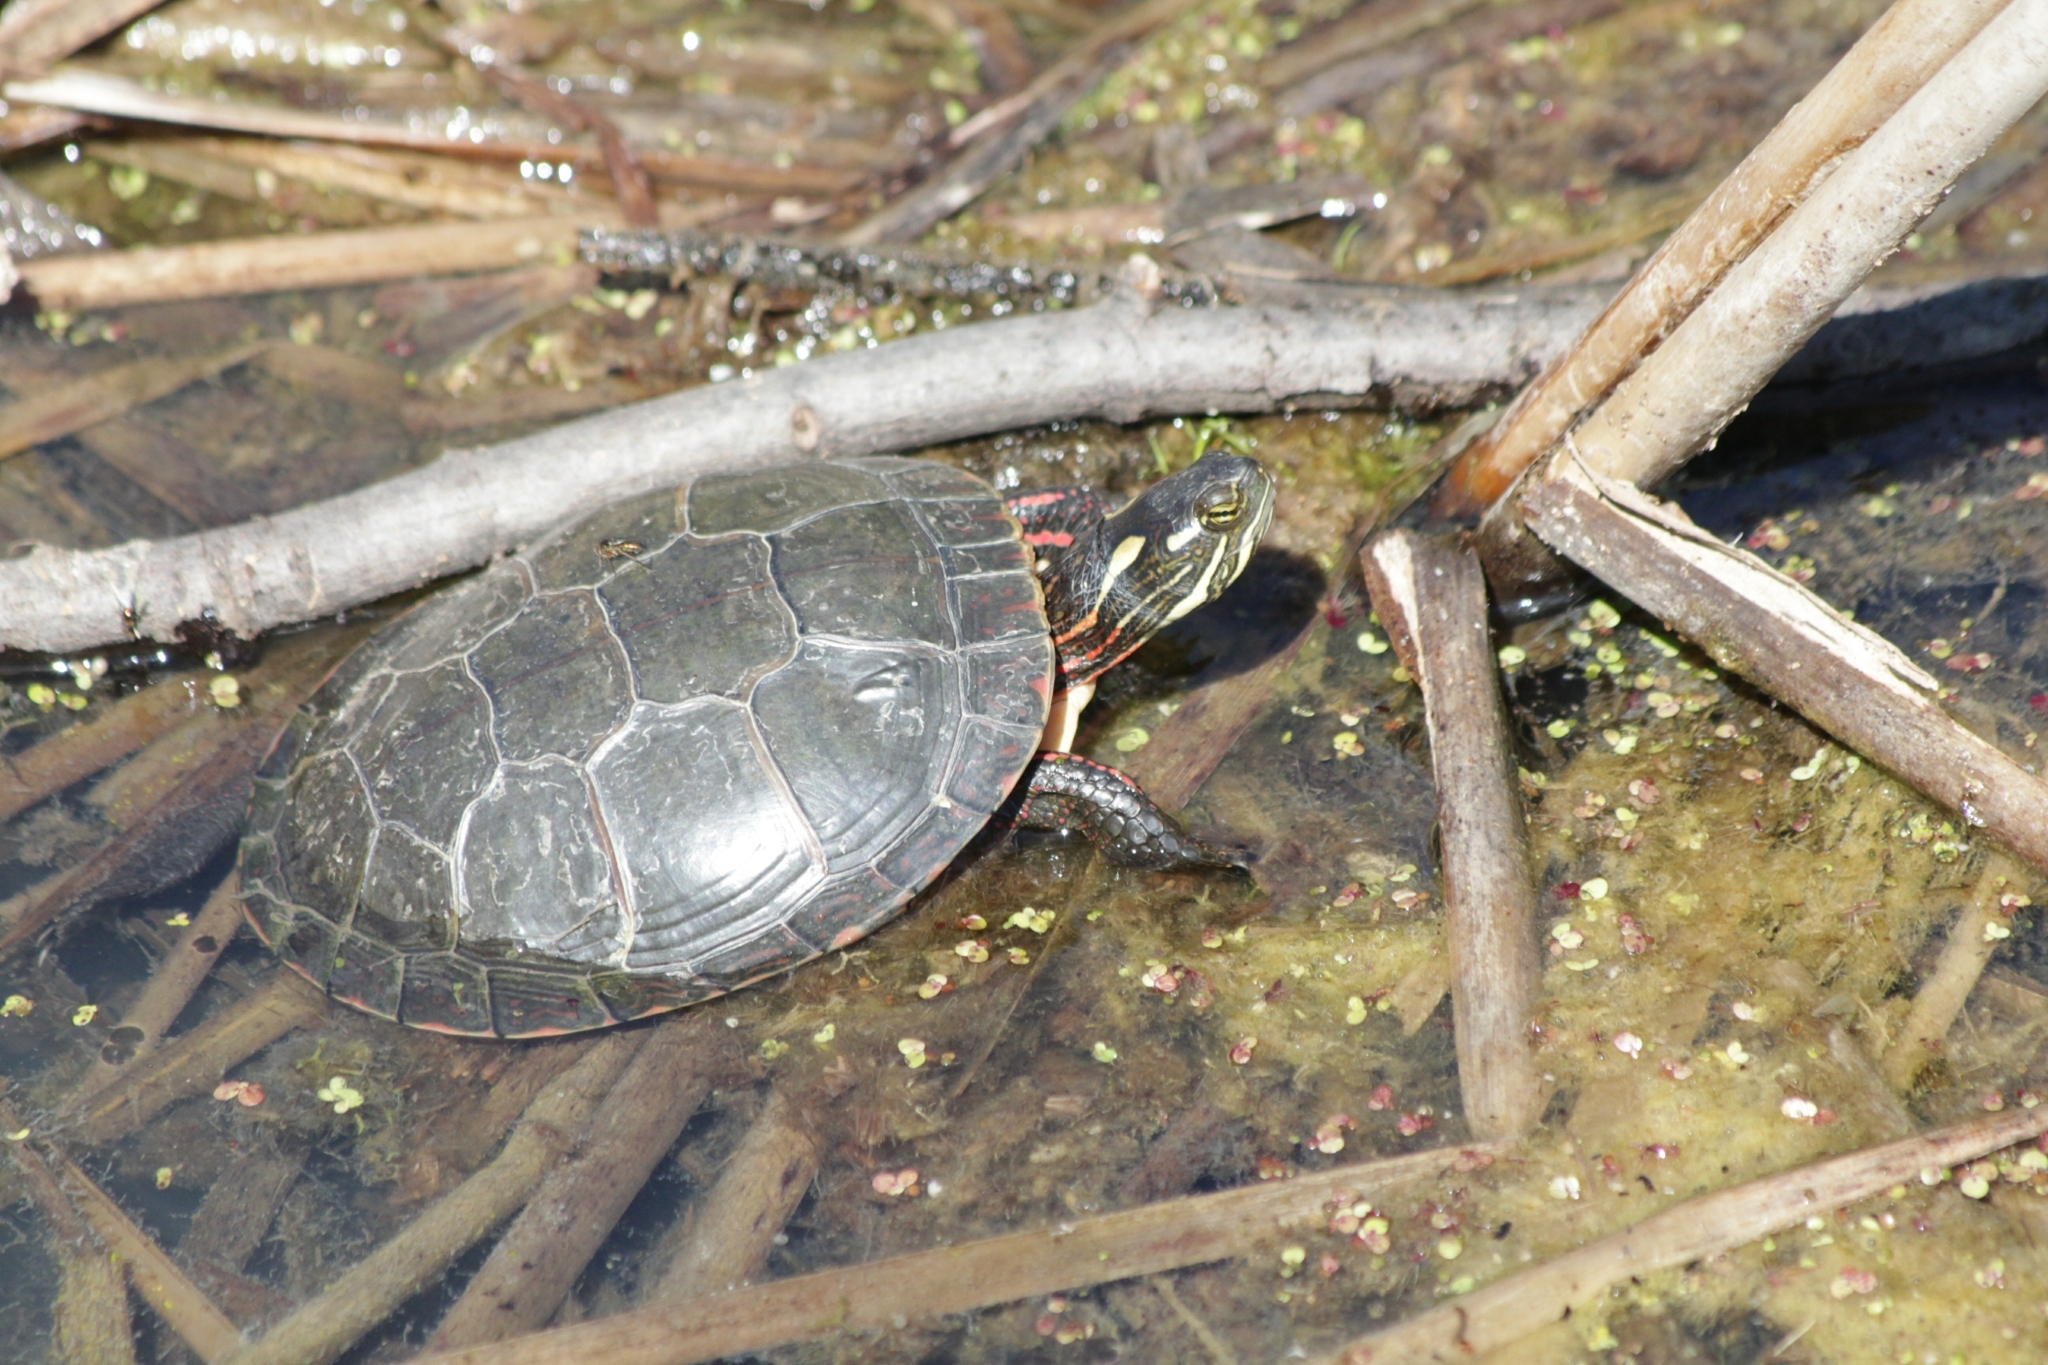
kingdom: Animalia
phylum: Chordata
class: Testudines
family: Emydidae
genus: Chrysemys
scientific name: Chrysemys picta
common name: Painted turtle
